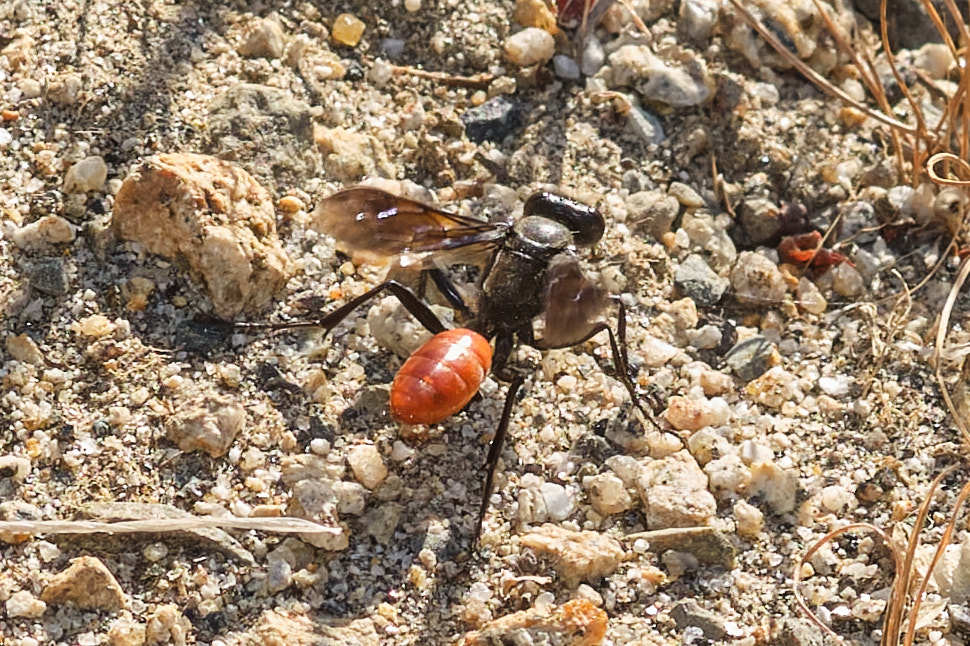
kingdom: Animalia
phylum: Arthropoda
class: Insecta
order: Hymenoptera
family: Sphecidae
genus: Sphex
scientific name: Sphex lucae
